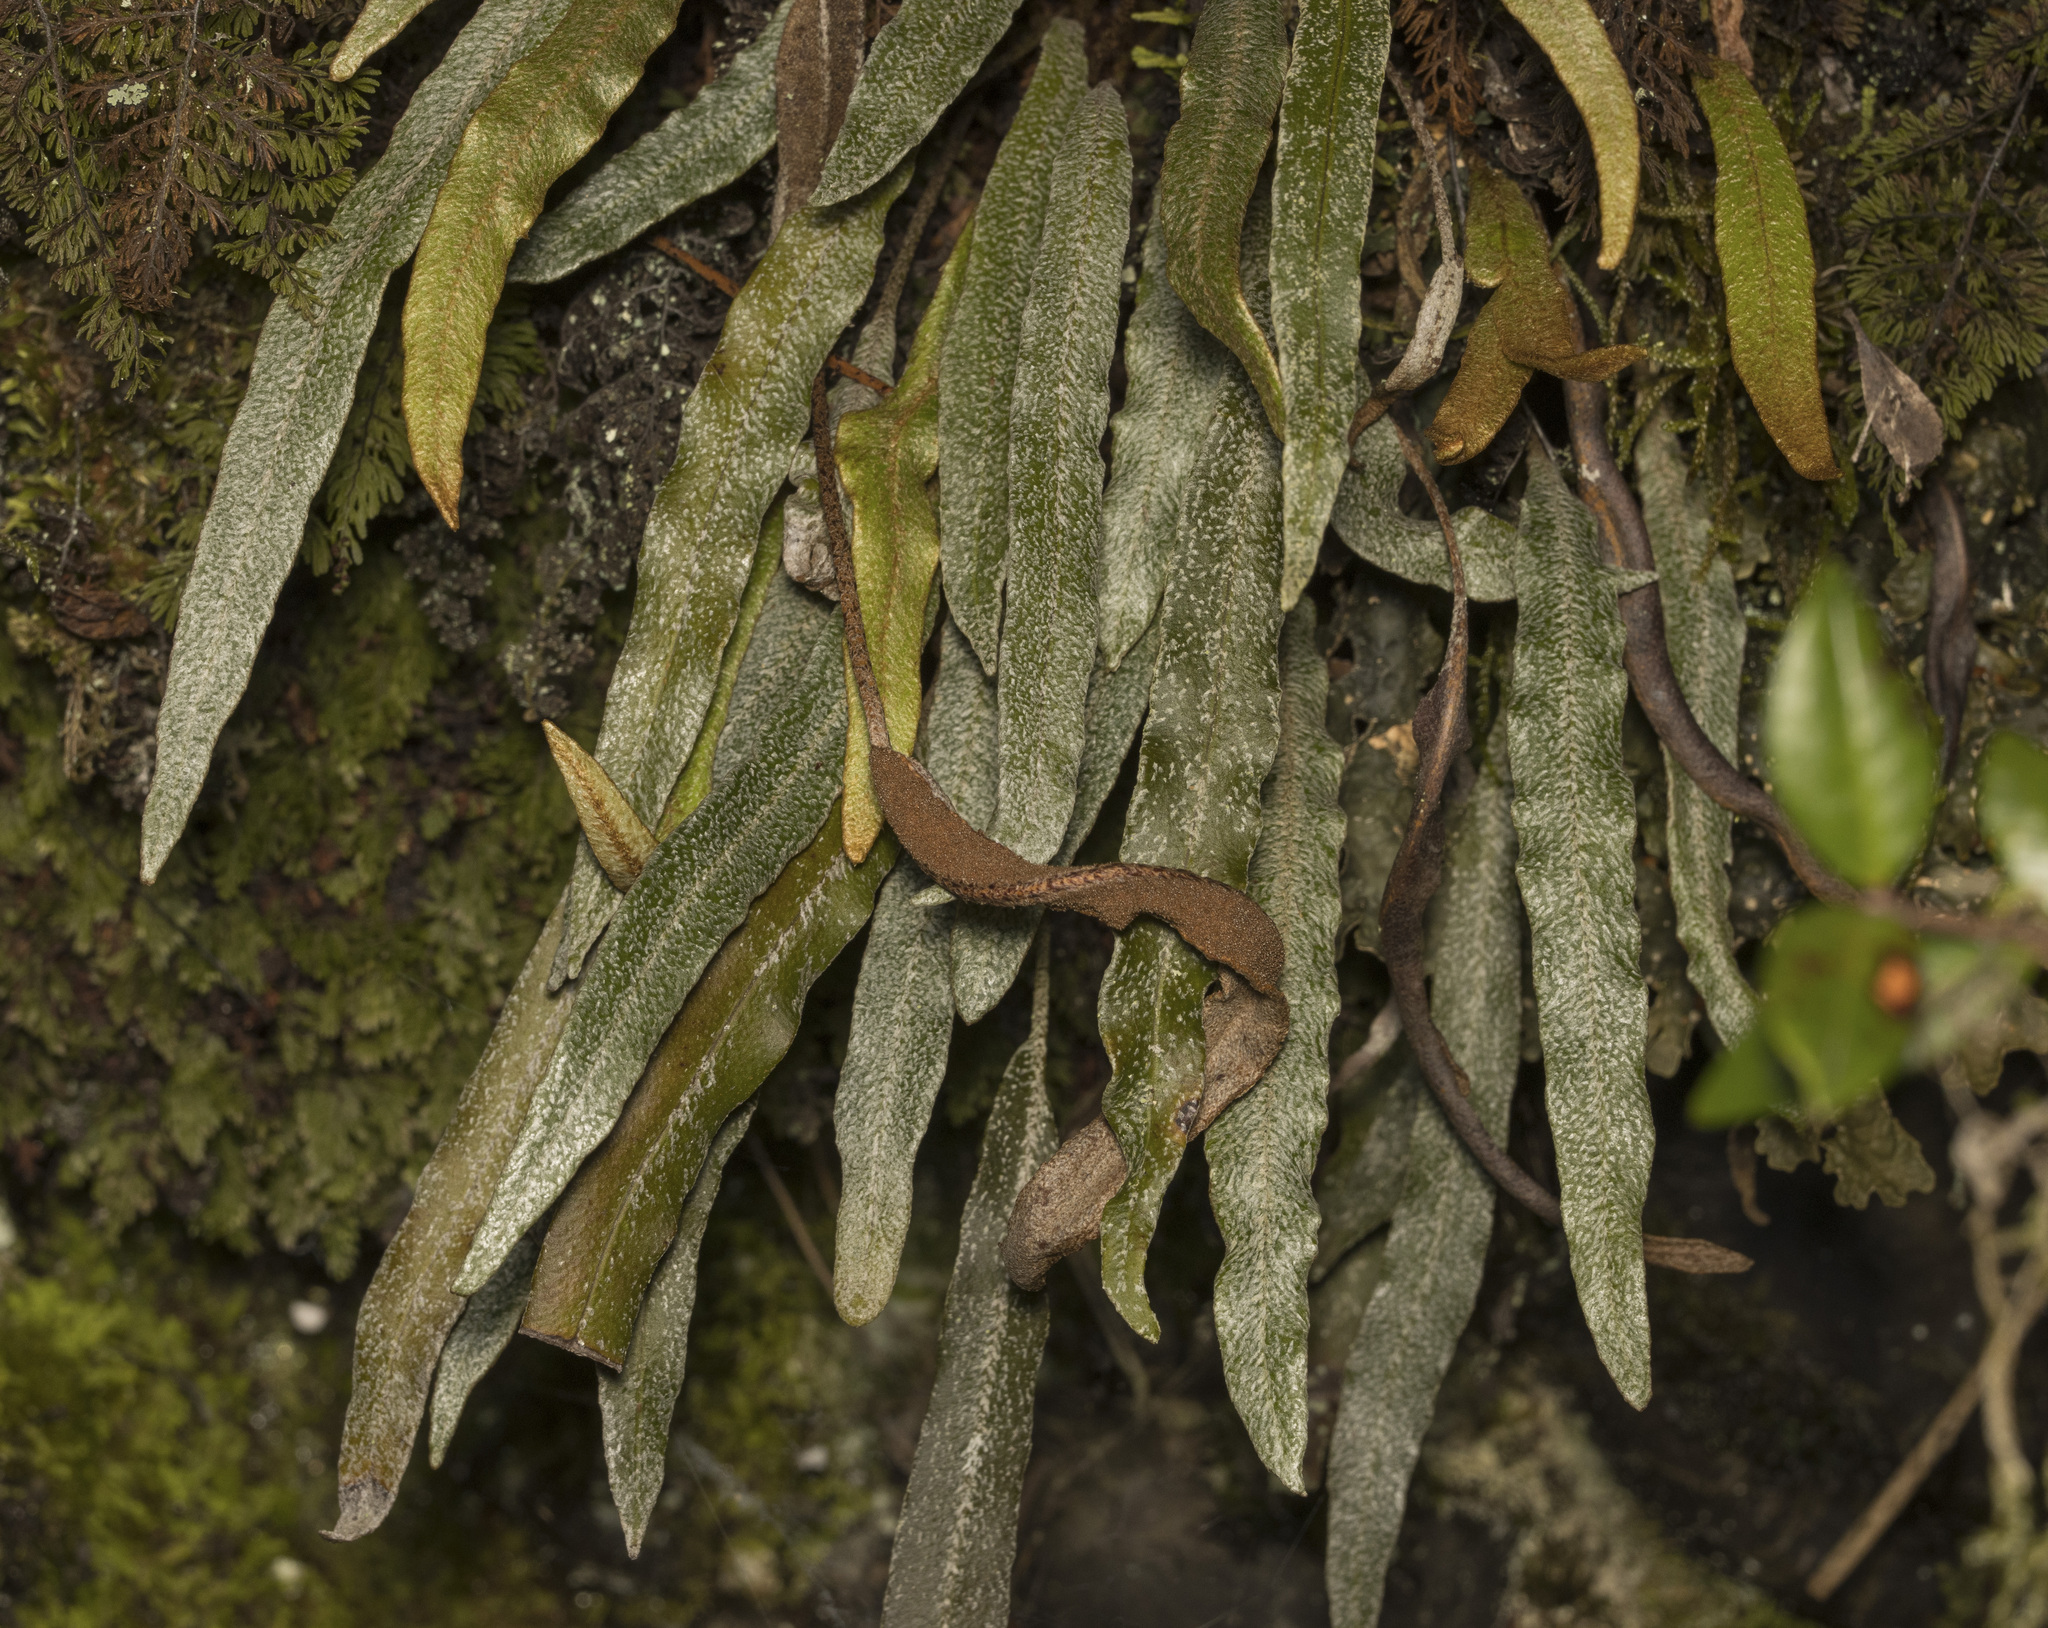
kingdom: Plantae
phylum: Tracheophyta
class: Polypodiopsida
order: Polypodiales
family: Dryopteridaceae
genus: Elaphoglossum
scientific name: Elaphoglossum fonki
